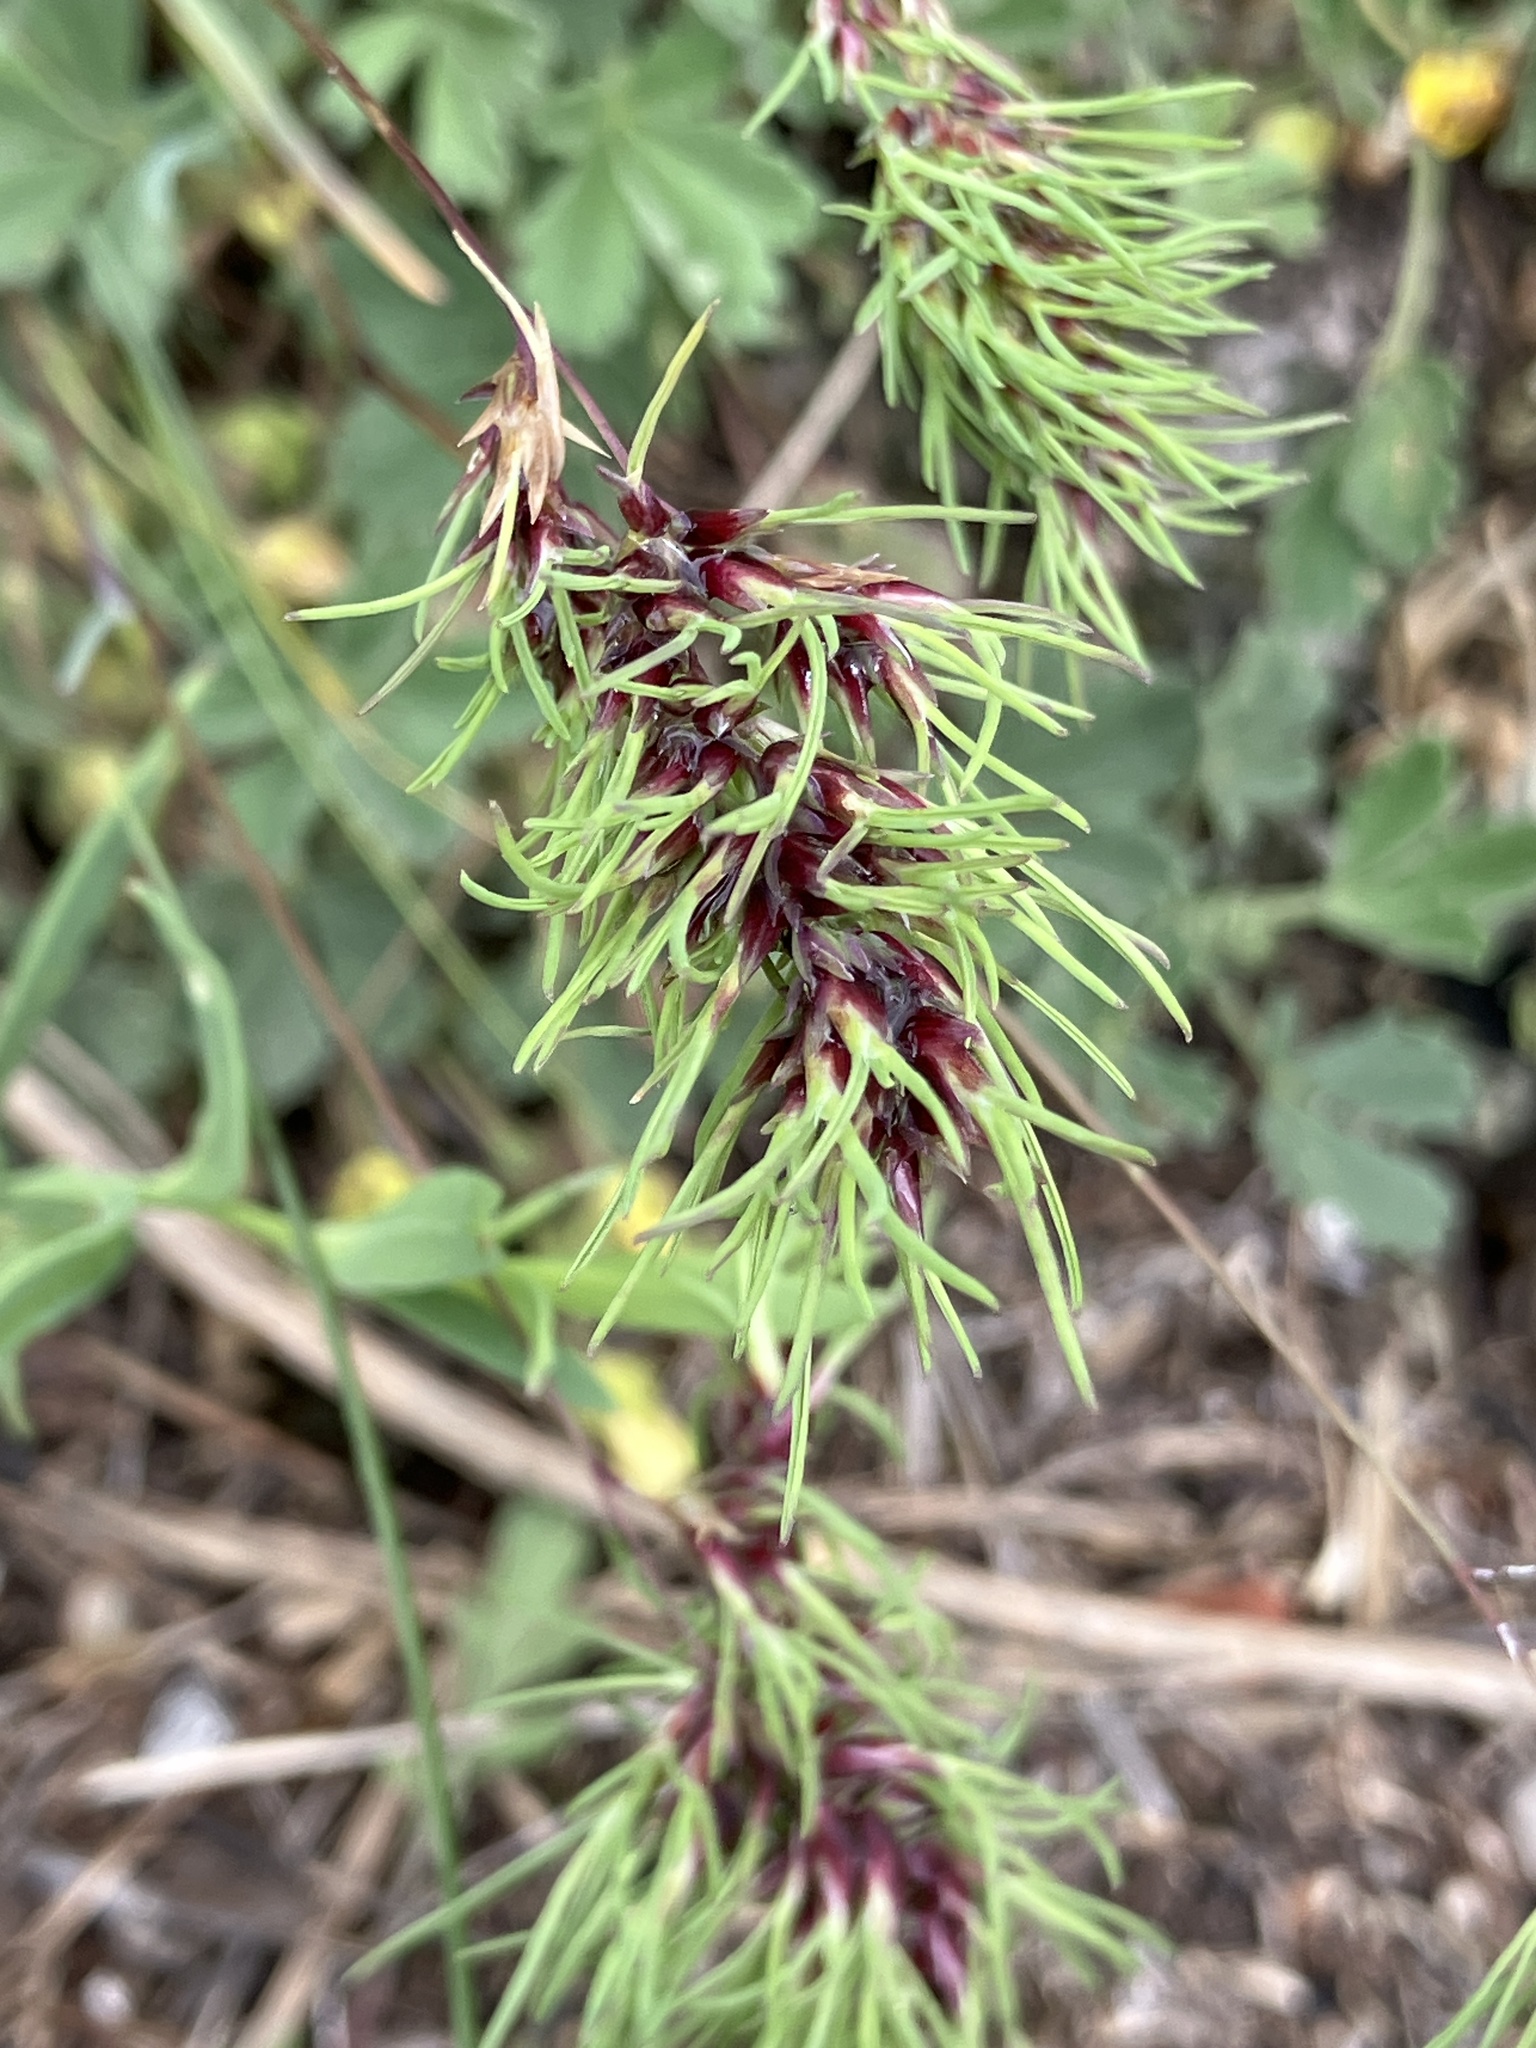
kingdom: Plantae
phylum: Tracheophyta
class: Liliopsida
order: Poales
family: Poaceae
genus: Poa
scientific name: Poa bulbosa
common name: Bulbous bluegrass
